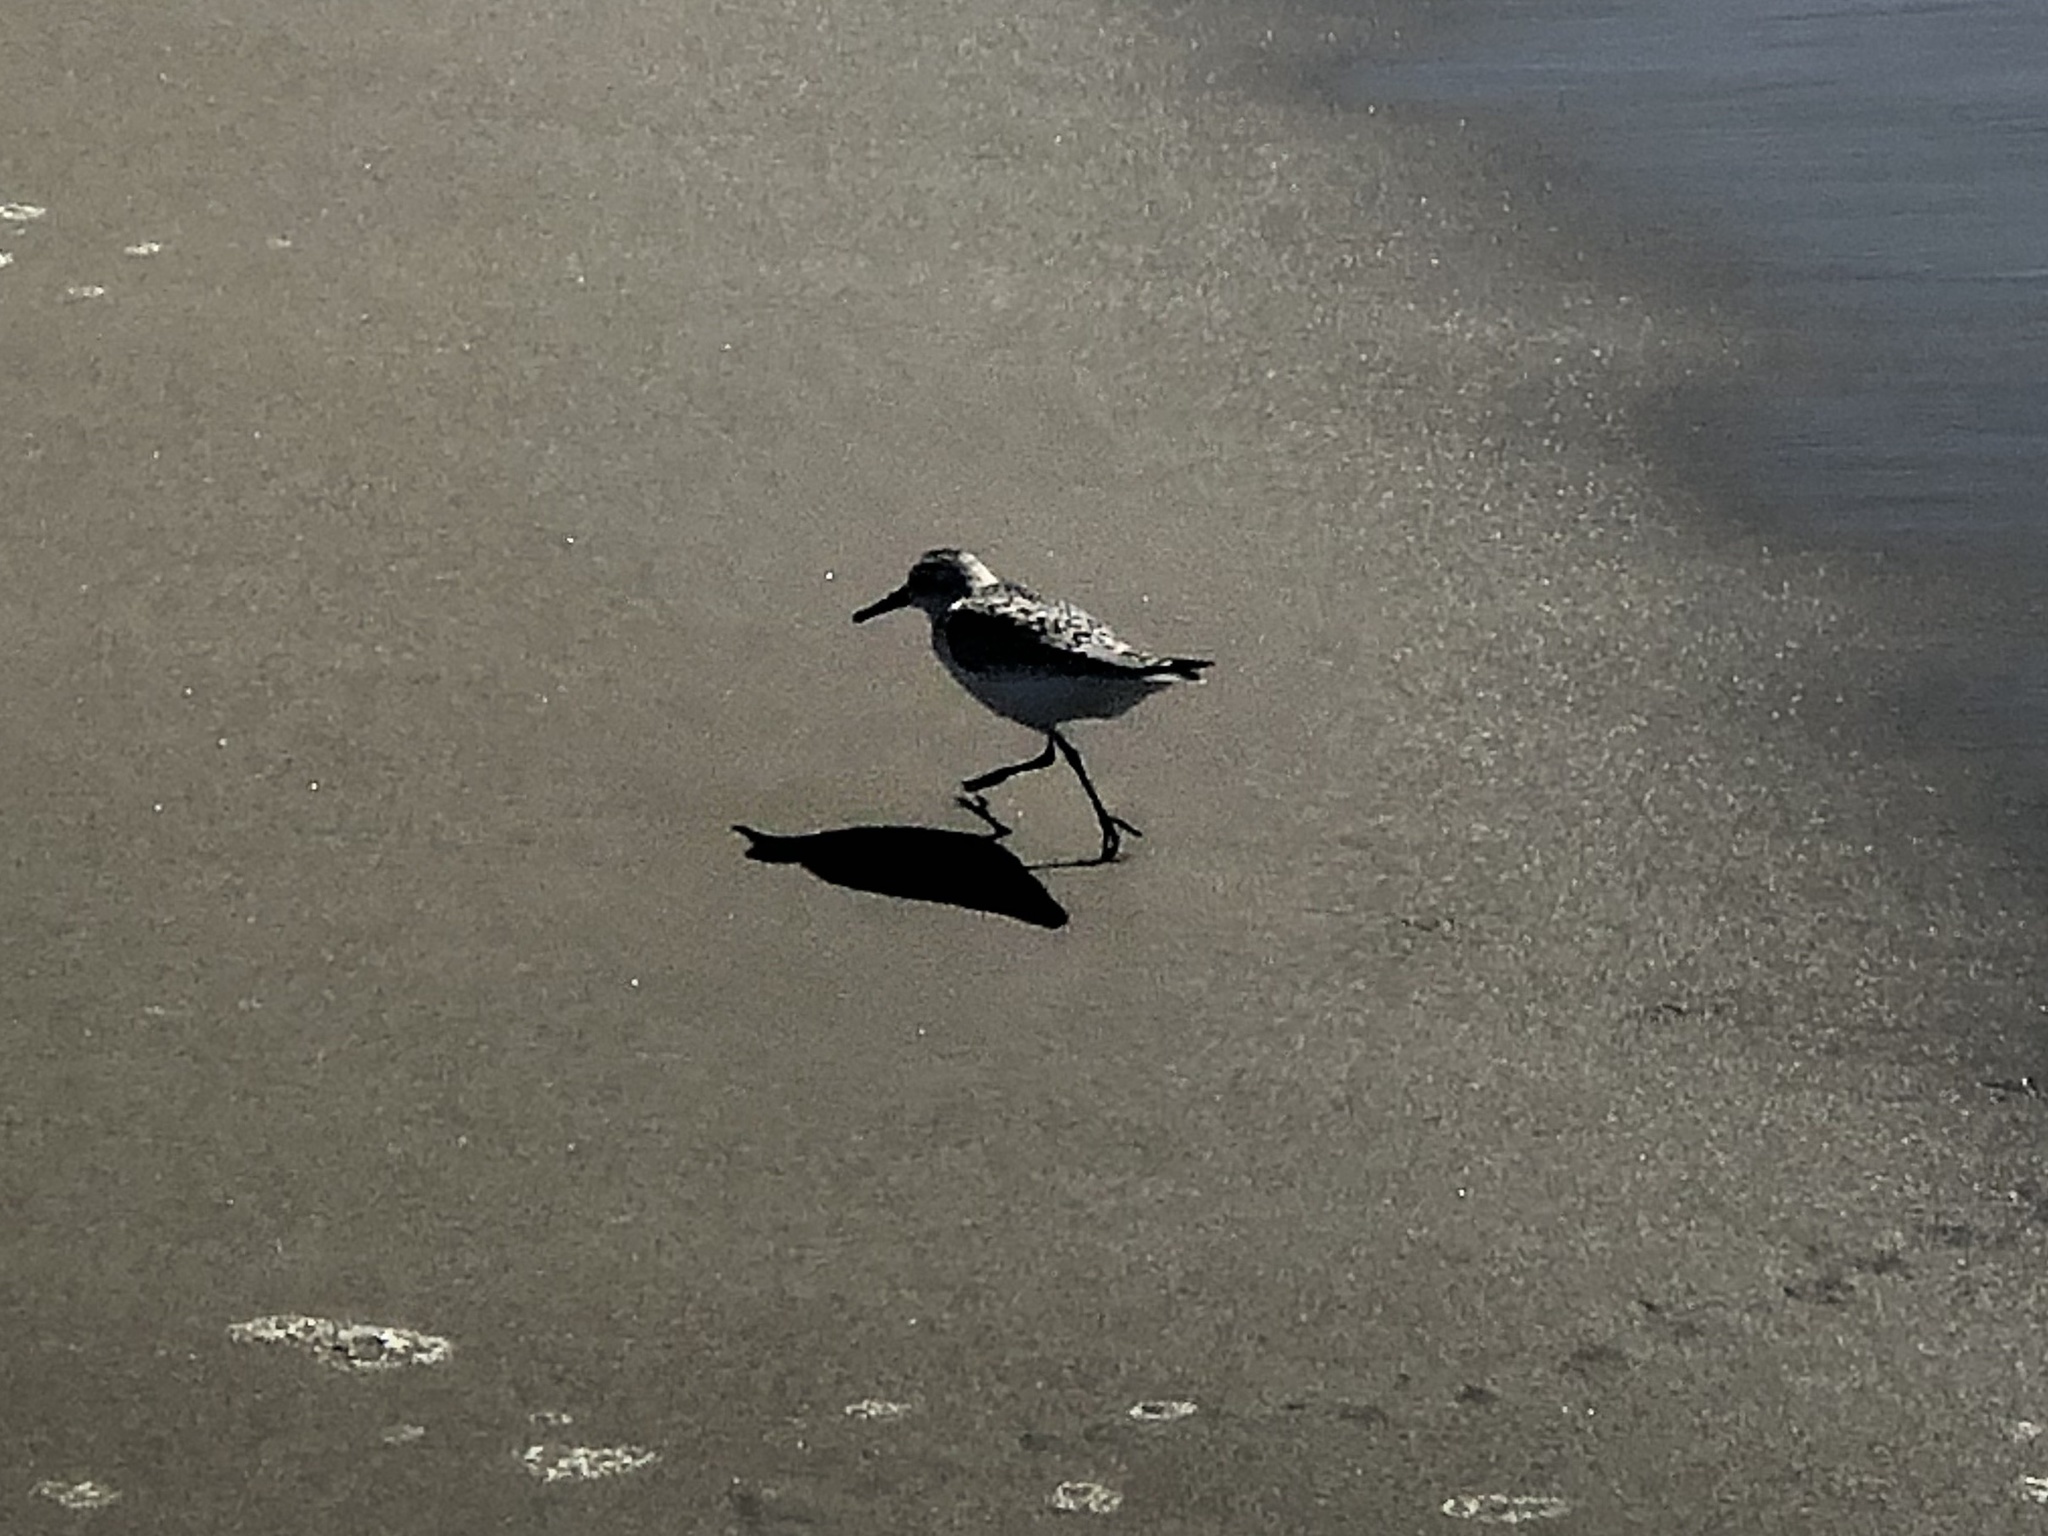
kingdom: Animalia
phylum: Chordata
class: Aves
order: Charadriiformes
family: Scolopacidae
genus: Calidris
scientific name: Calidris alba
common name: Sanderling
